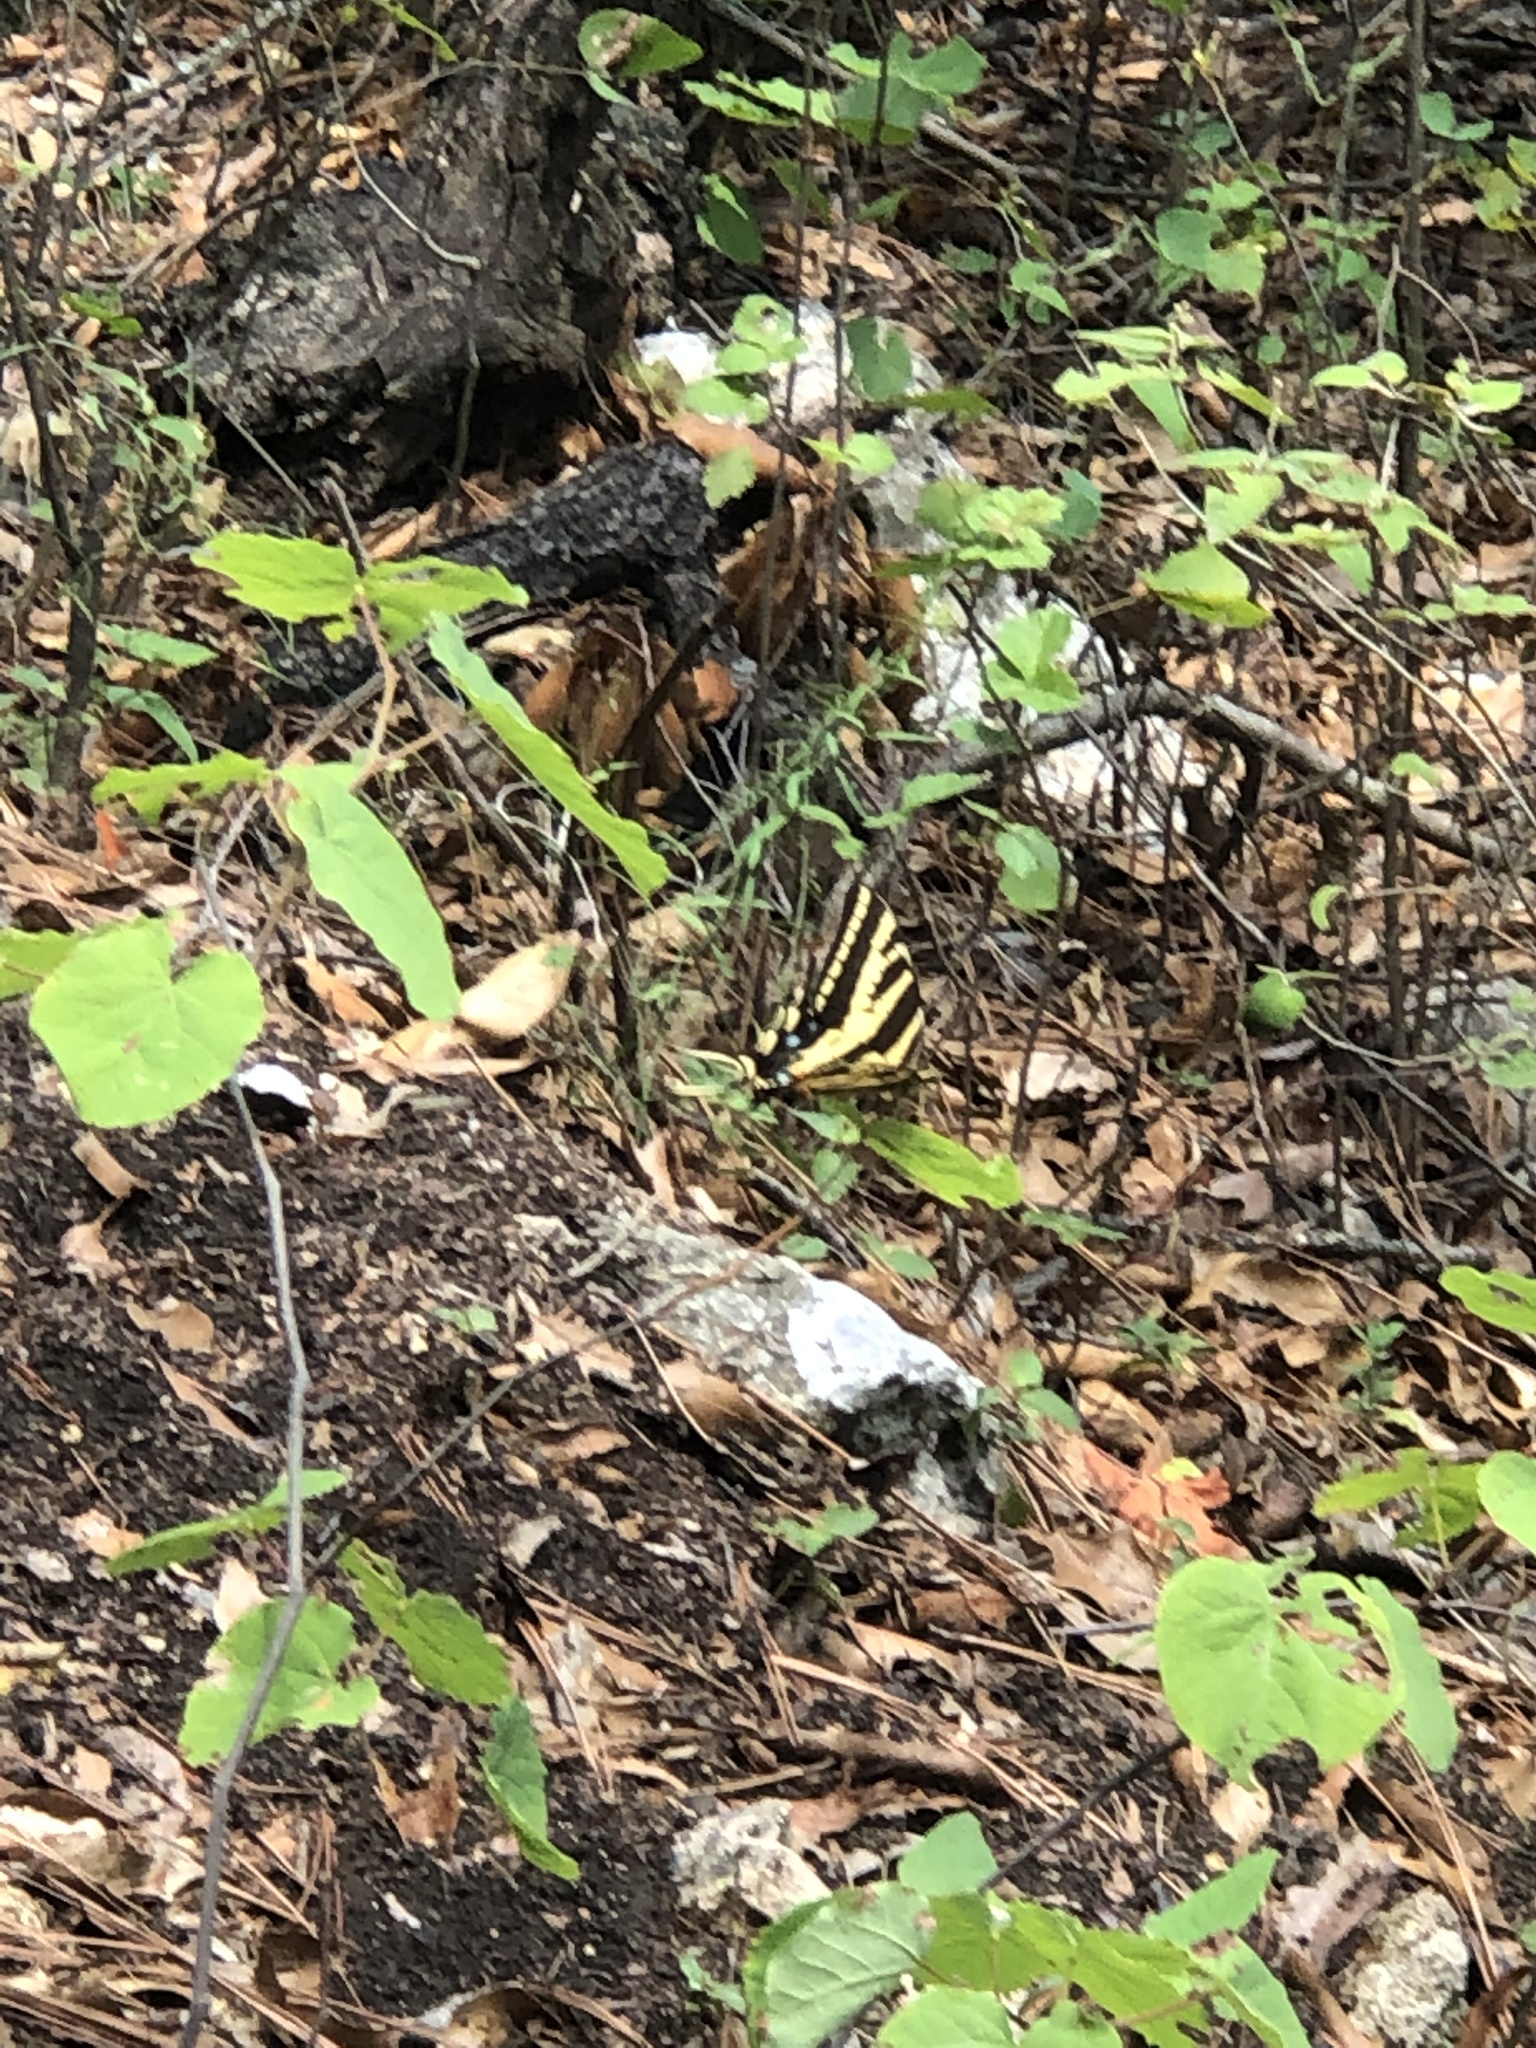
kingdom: Animalia
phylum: Arthropoda
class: Insecta
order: Lepidoptera
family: Papilionidae
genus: Papilio
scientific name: Papilio pilumnus
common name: Three-tailed tiger swallowtail
